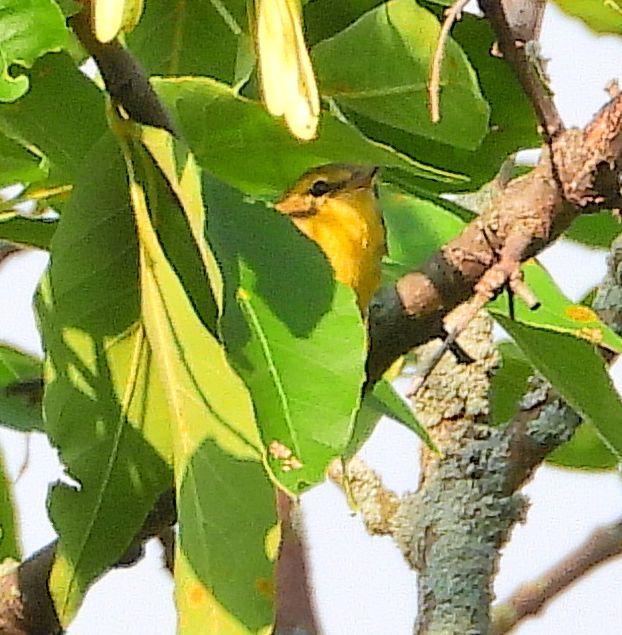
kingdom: Animalia
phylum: Chordata
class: Aves
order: Passeriformes
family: Parulidae
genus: Setophaga
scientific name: Setophaga fusca
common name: Blackburnian warbler
